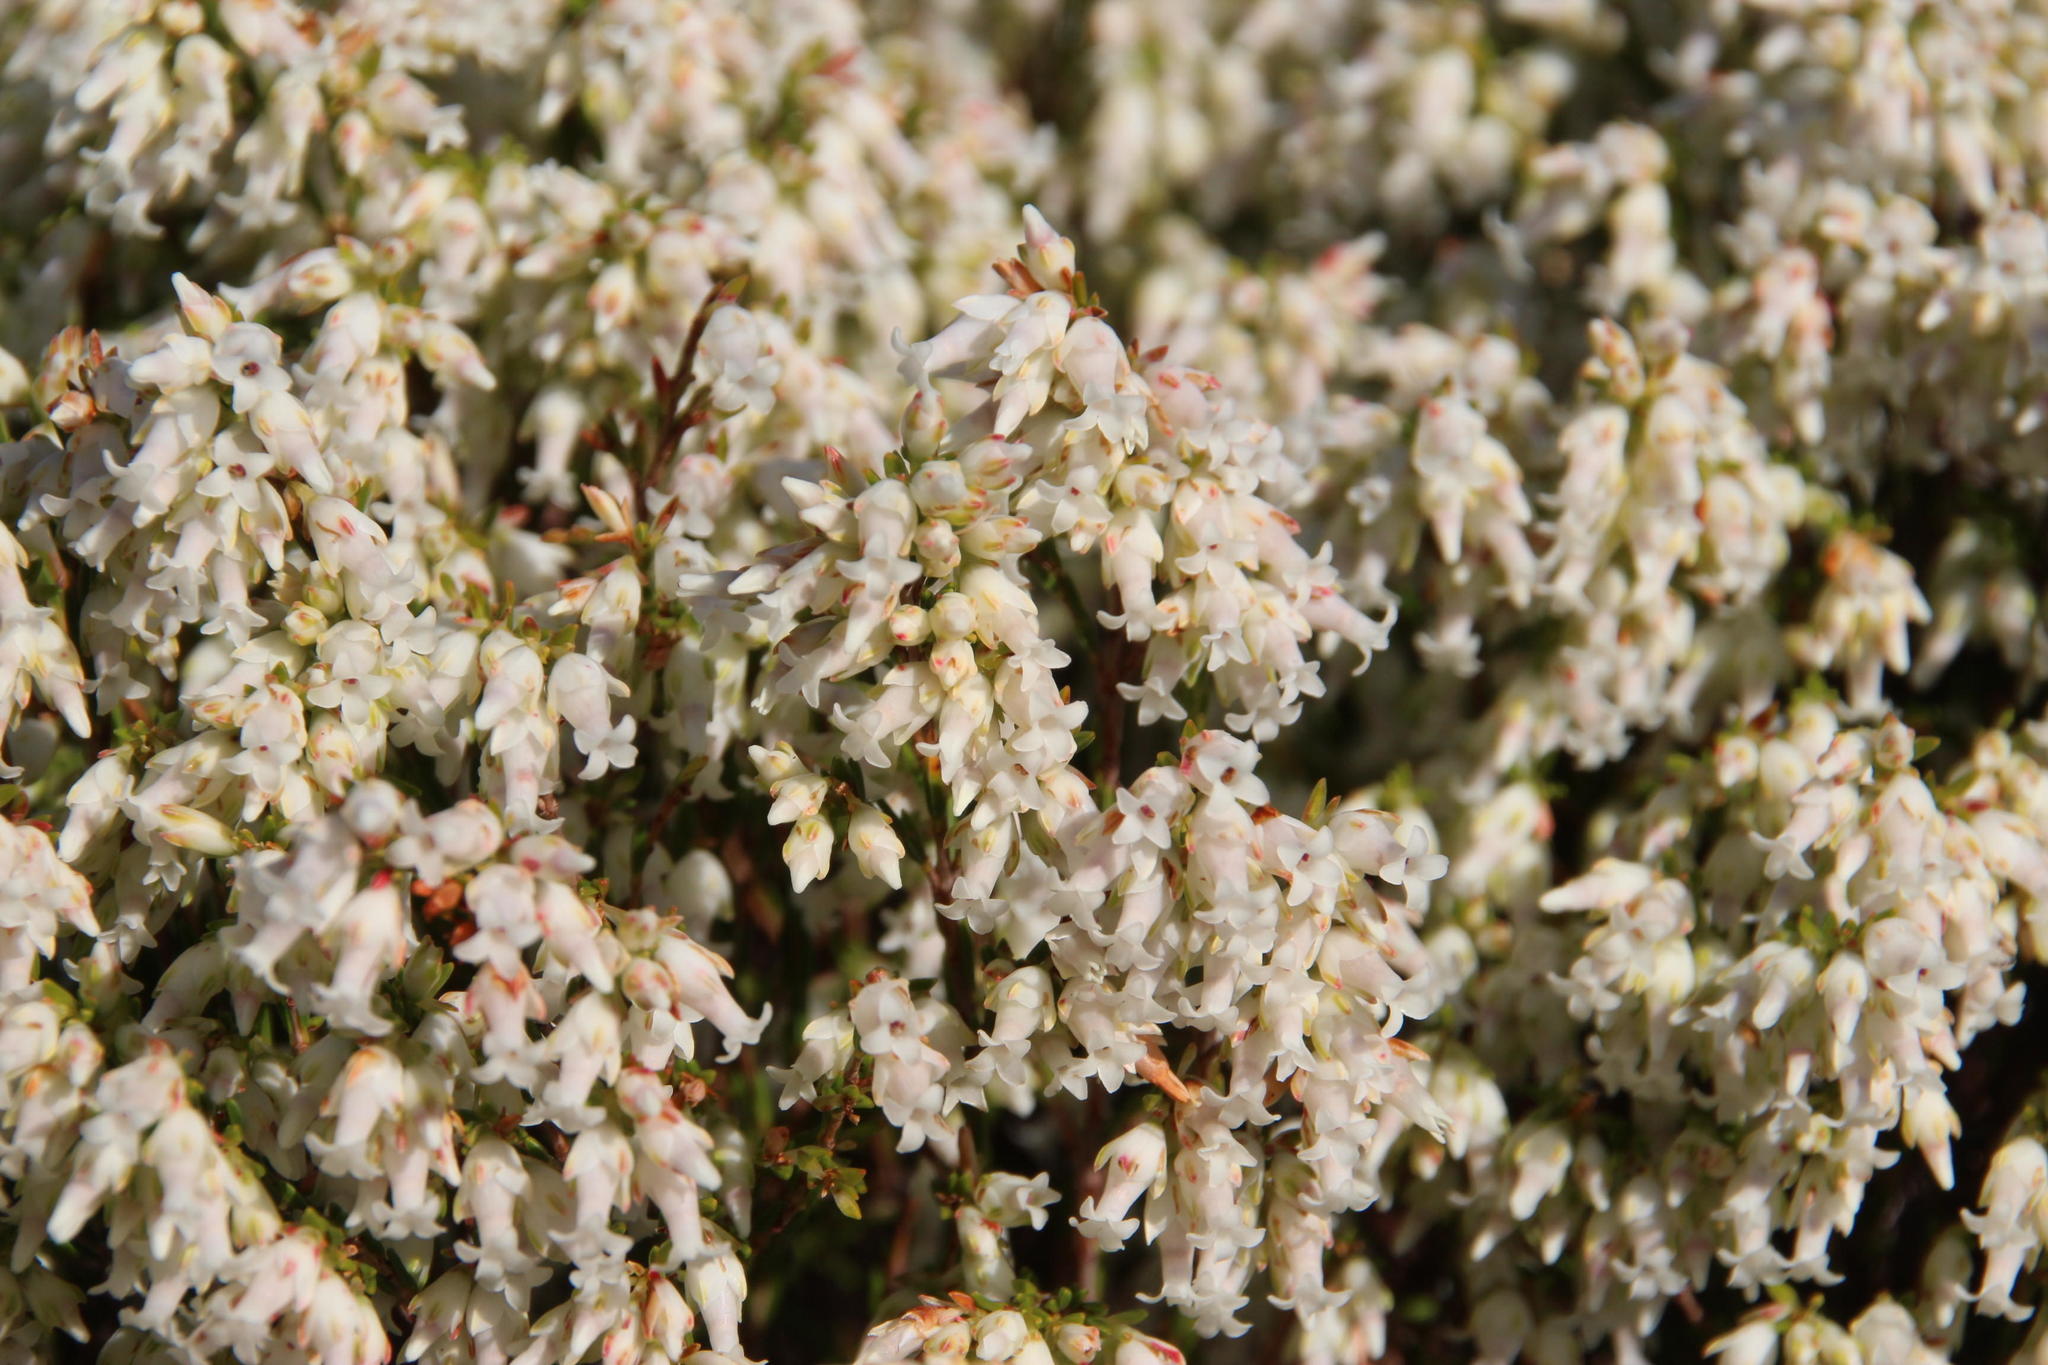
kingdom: Plantae
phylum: Tracheophyta
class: Magnoliopsida
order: Ericales
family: Ericaceae
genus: Erica
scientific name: Erica lutea
